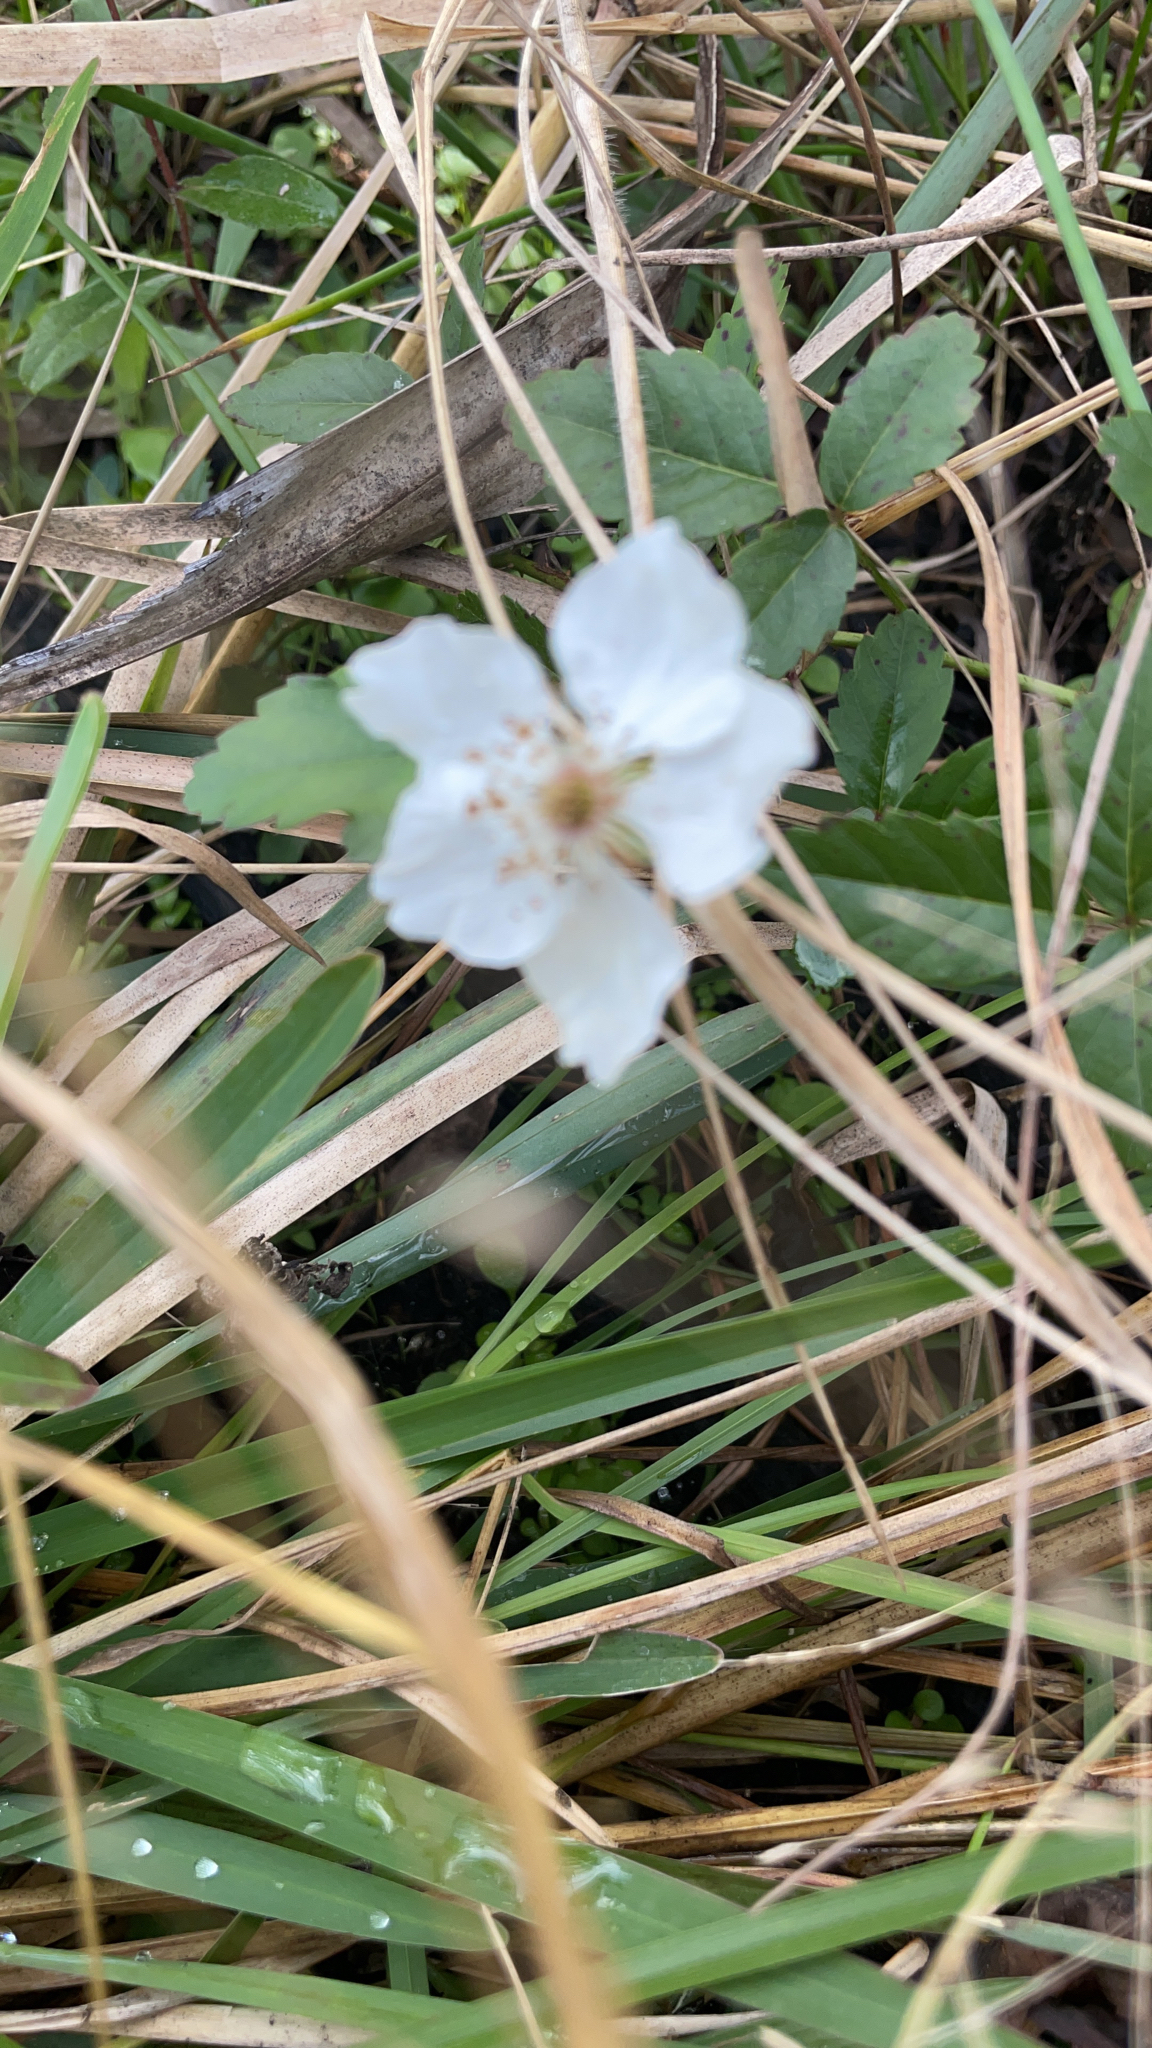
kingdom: Plantae
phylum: Tracheophyta
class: Magnoliopsida
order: Rosales
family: Rosaceae
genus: Rubus
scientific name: Rubus trivialis
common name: Southern dewberry
